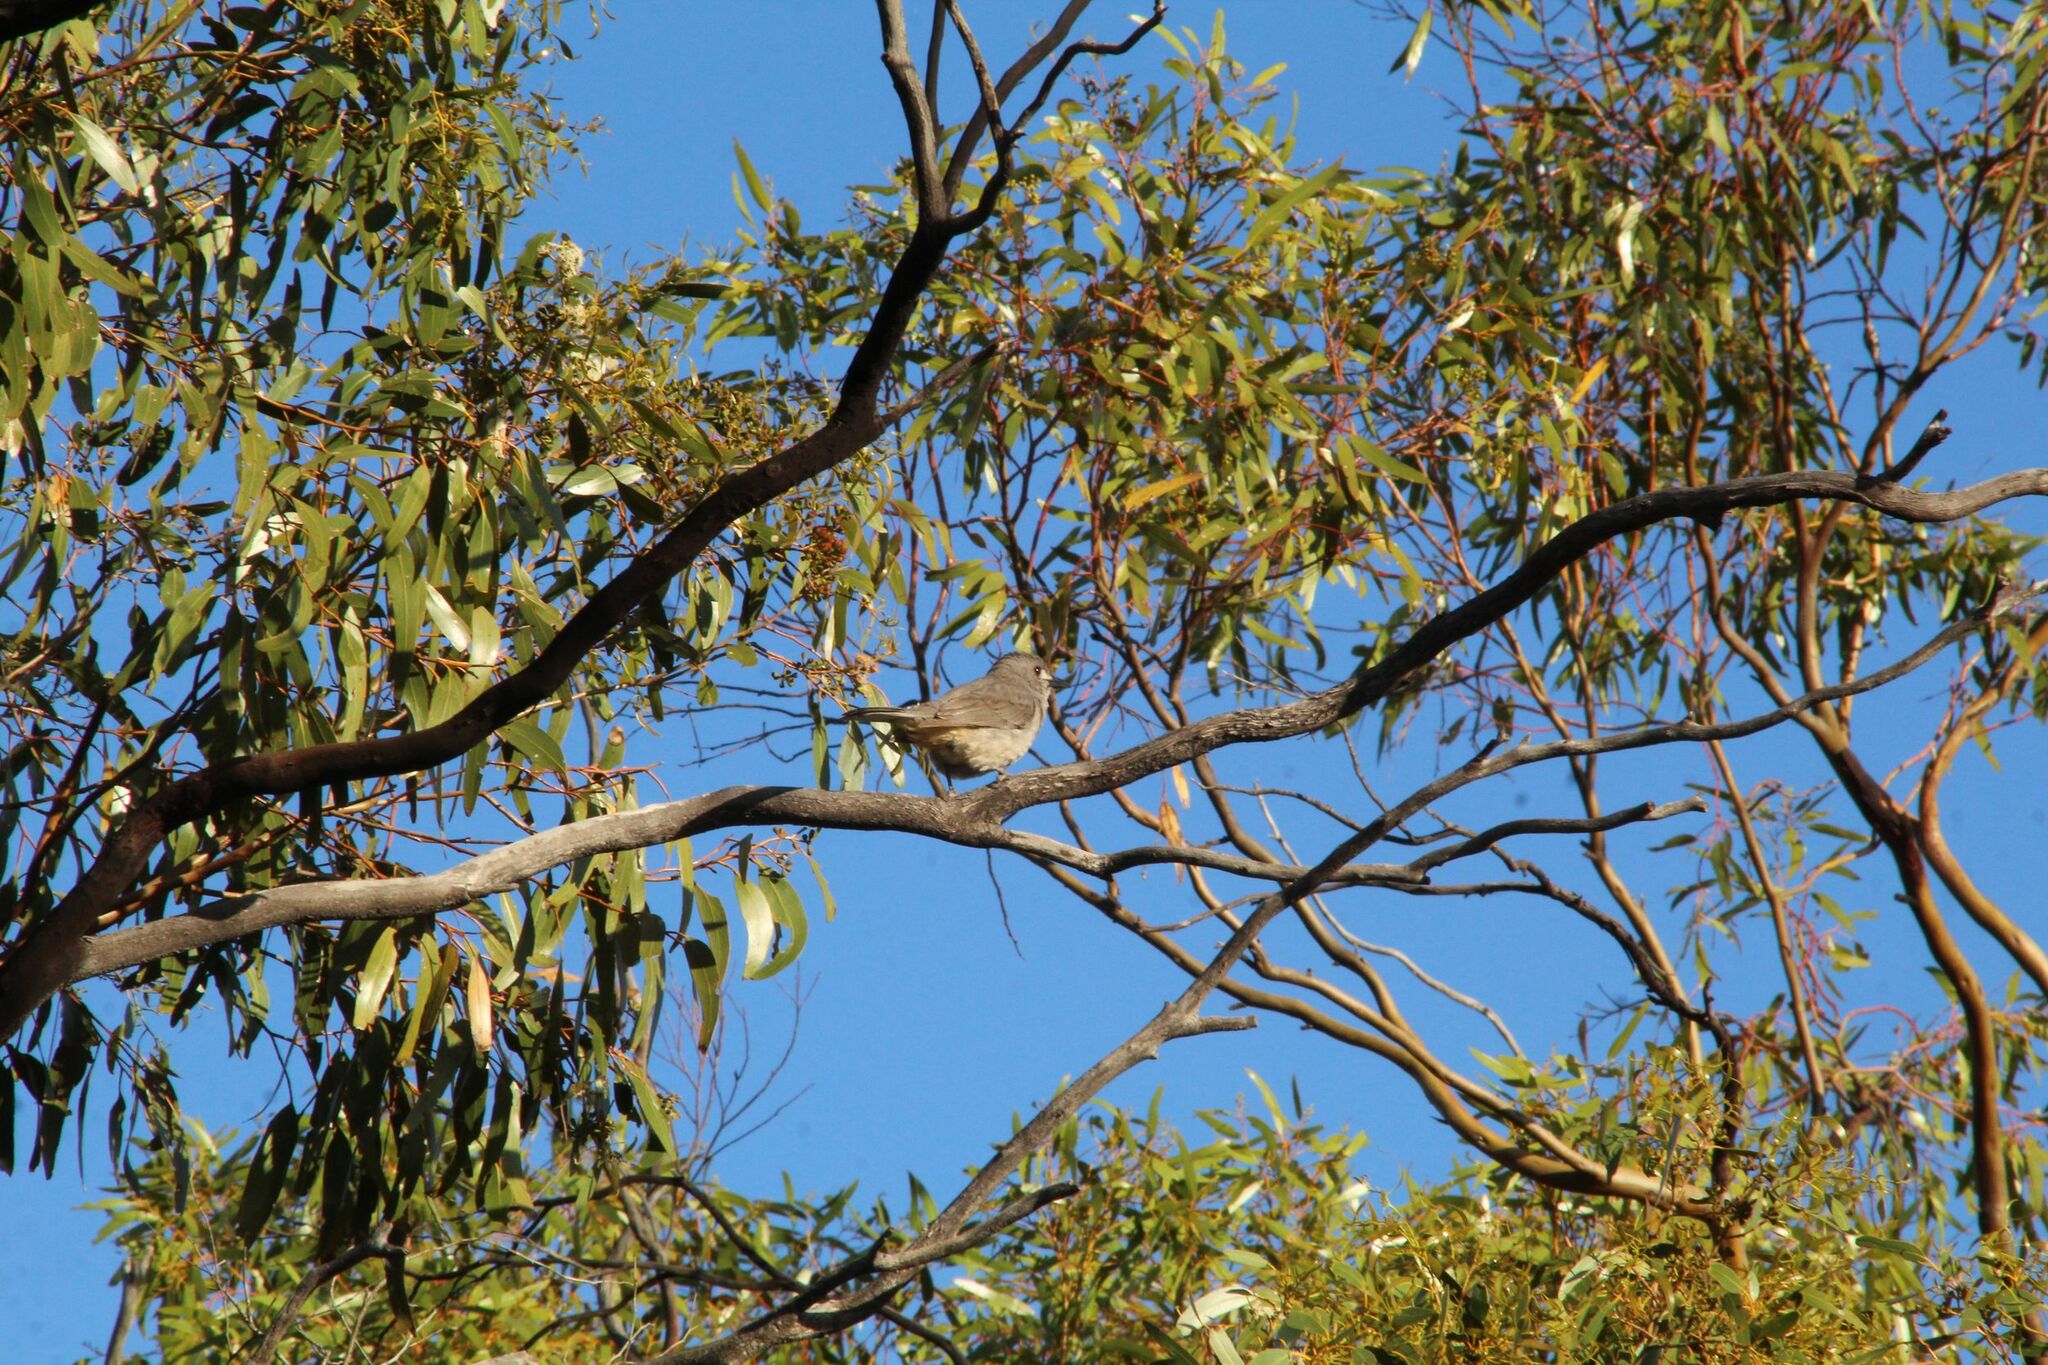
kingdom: Animalia
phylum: Chordata
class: Aves
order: Passeriformes
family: Pachycephalidae
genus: Colluricincla
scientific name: Colluricincla harmonica
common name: Grey shrikethrush
